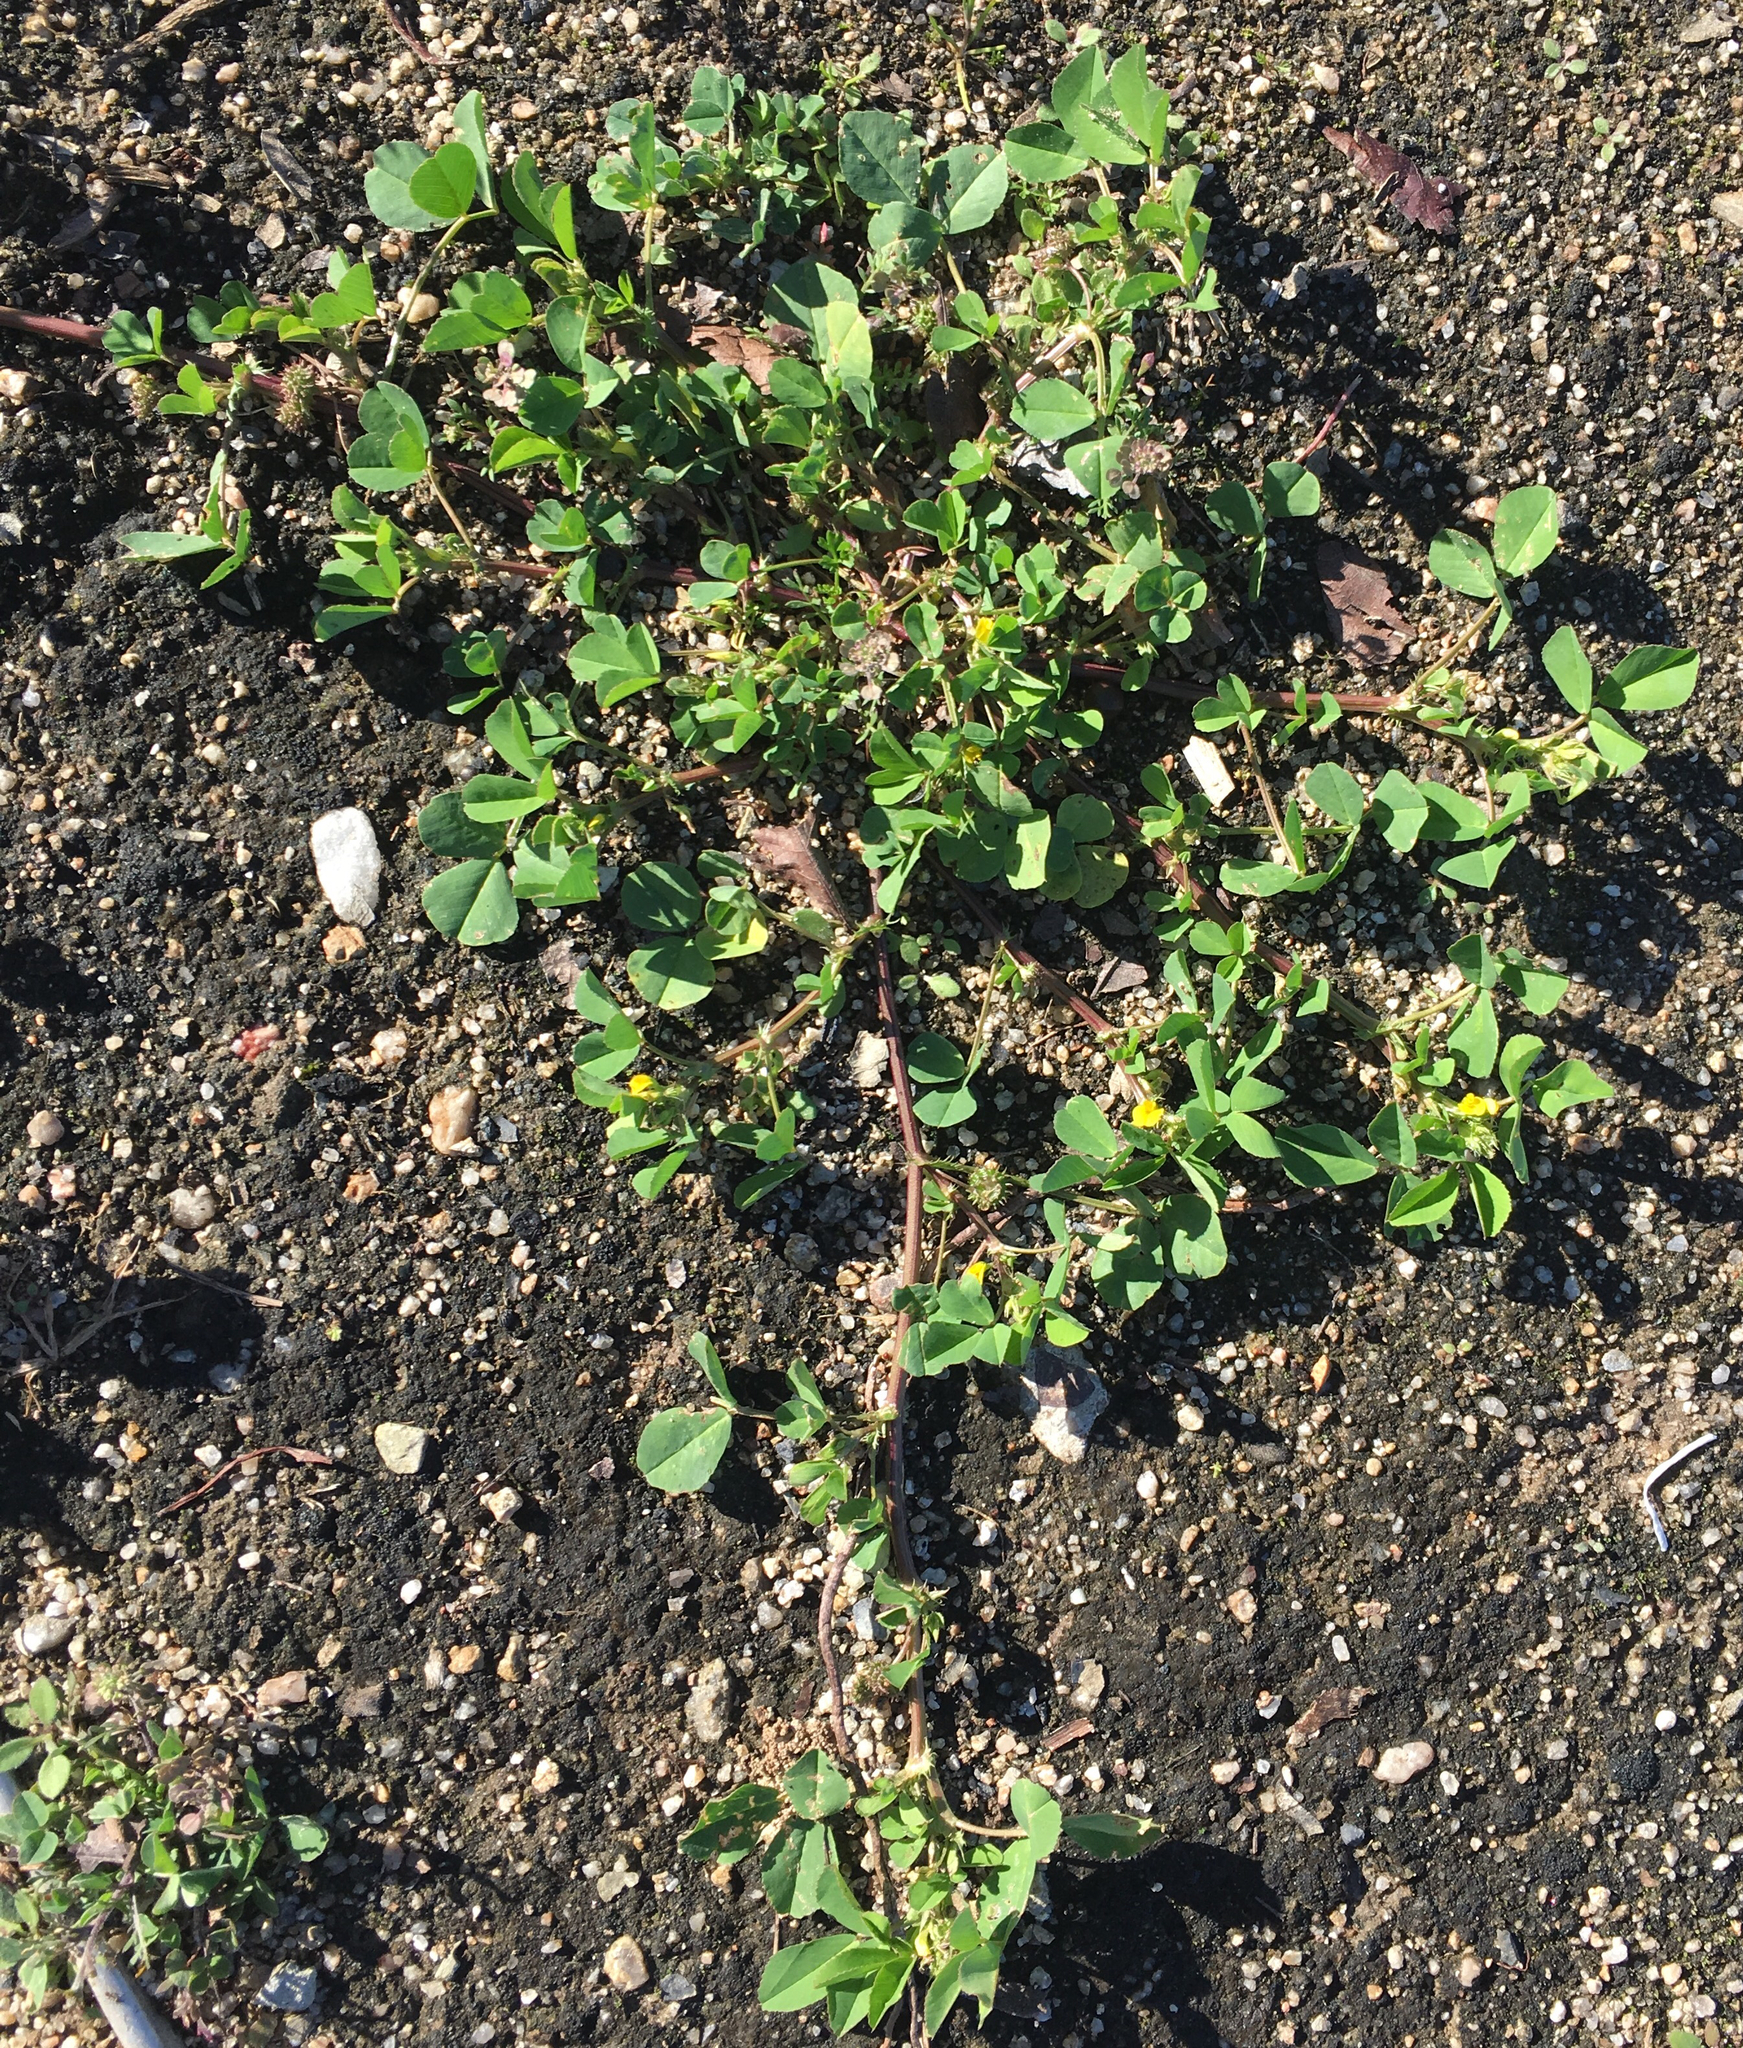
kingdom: Plantae
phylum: Tracheophyta
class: Magnoliopsida
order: Fabales
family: Fabaceae
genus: Medicago
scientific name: Medicago polymorpha
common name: Burclover
